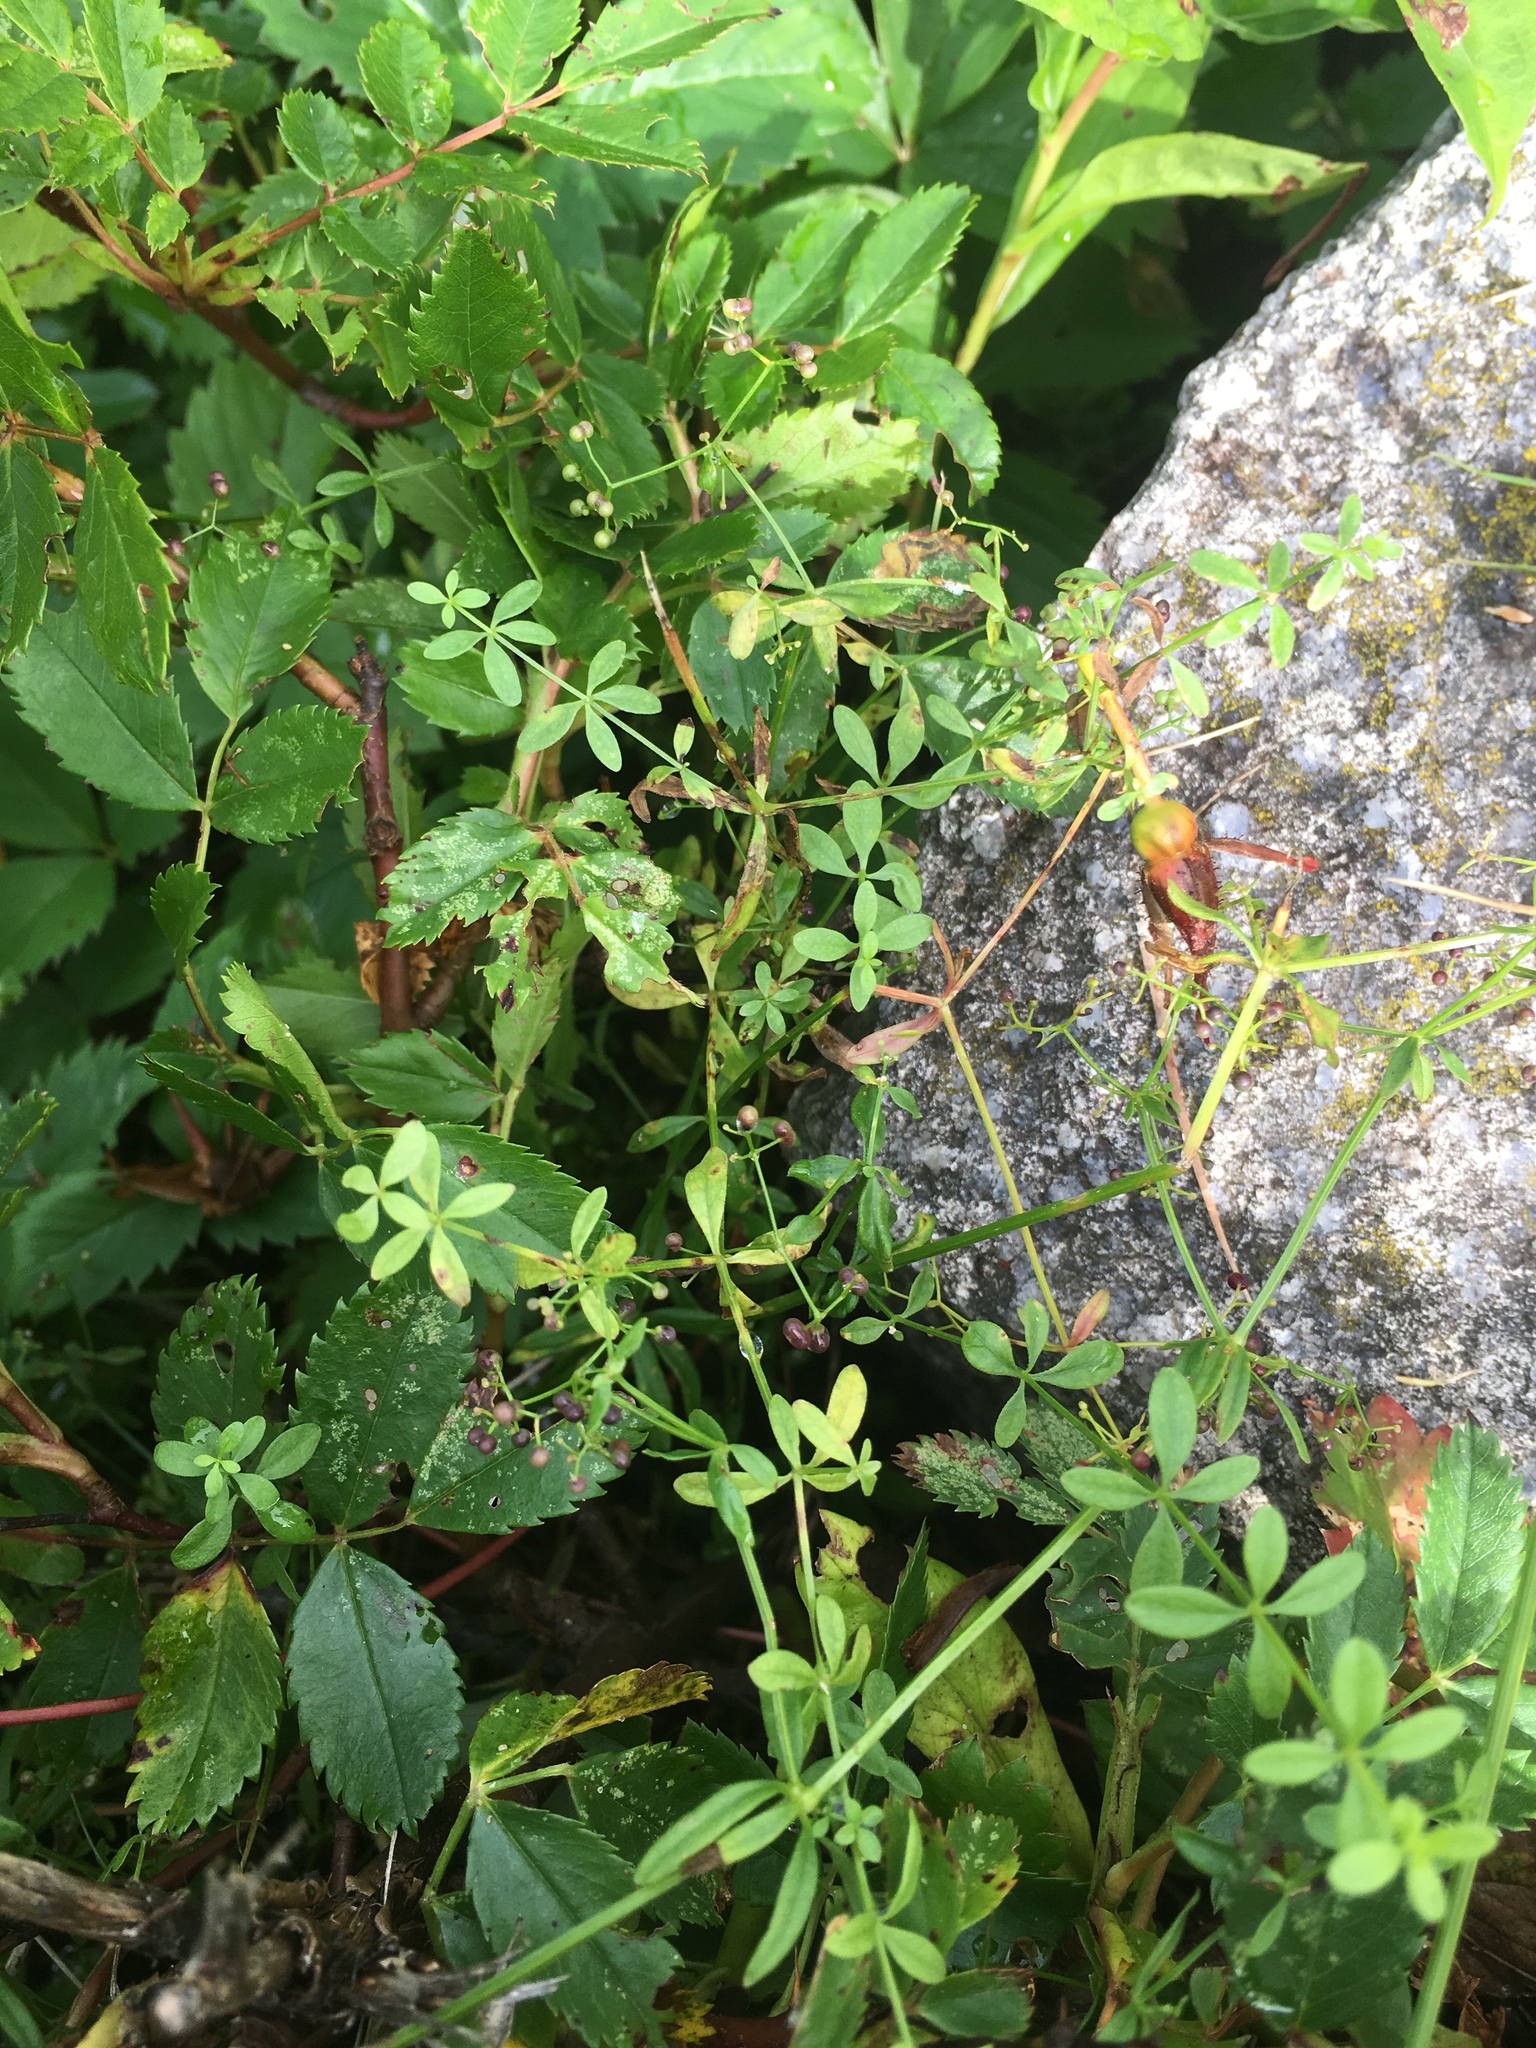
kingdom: Plantae
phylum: Tracheophyta
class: Magnoliopsida
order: Gentianales
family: Rubiaceae
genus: Galium
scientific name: Galium palustre
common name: Common marsh-bedstraw
